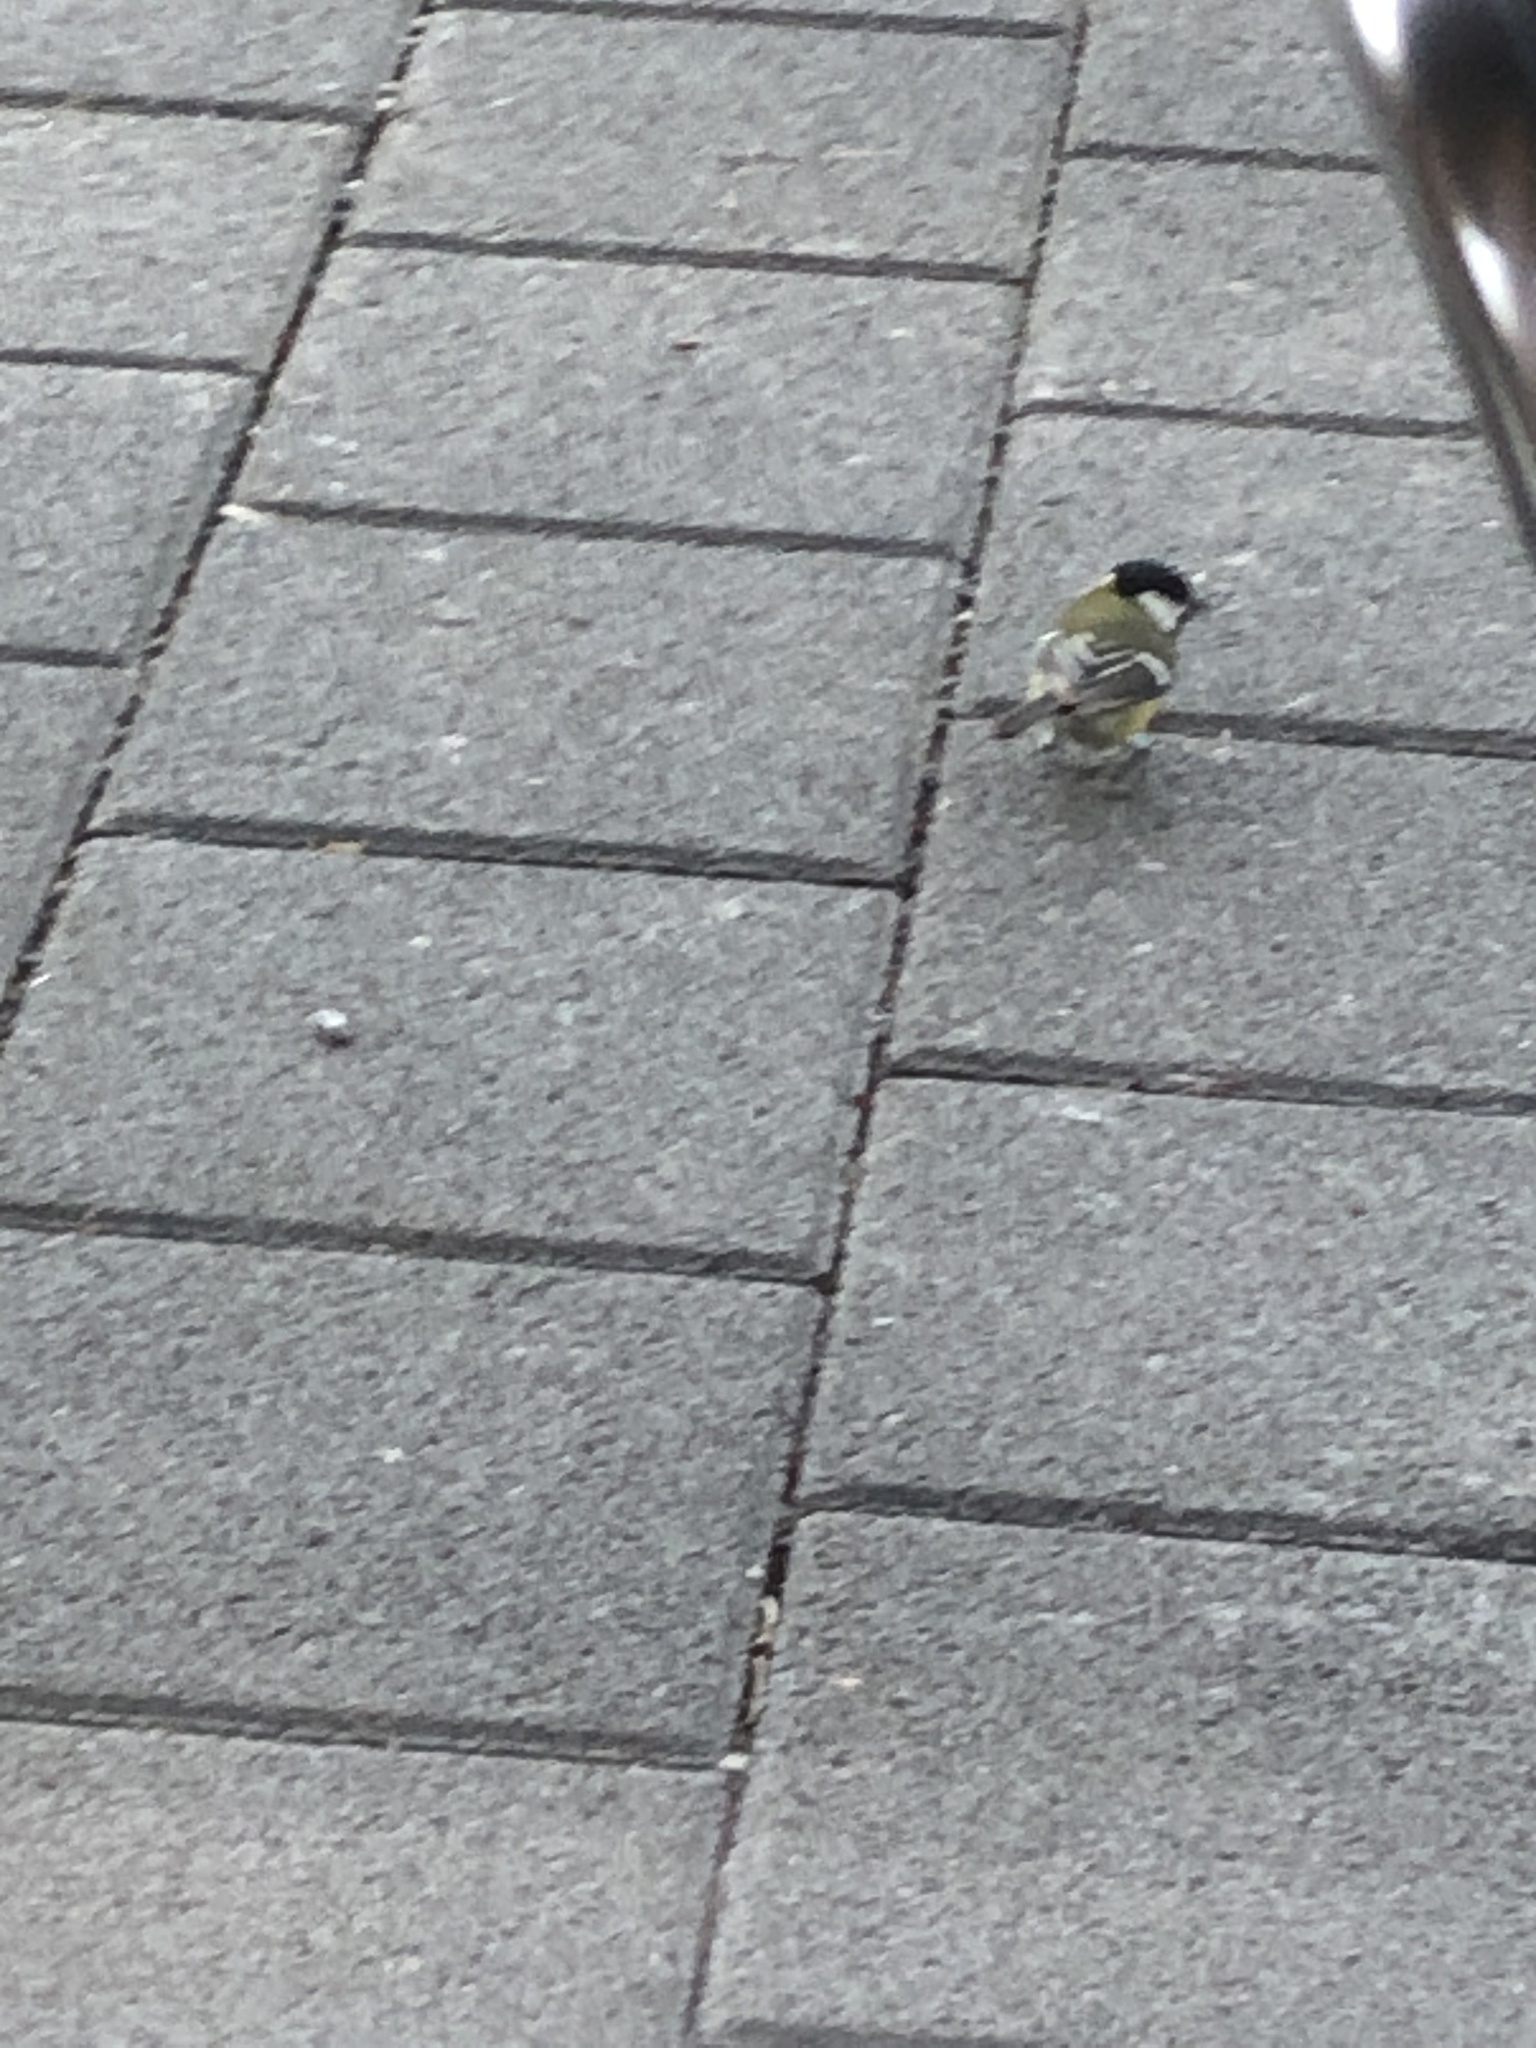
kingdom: Animalia
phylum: Chordata
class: Aves
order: Passeriformes
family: Paridae
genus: Parus
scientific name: Parus major
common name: Great tit
